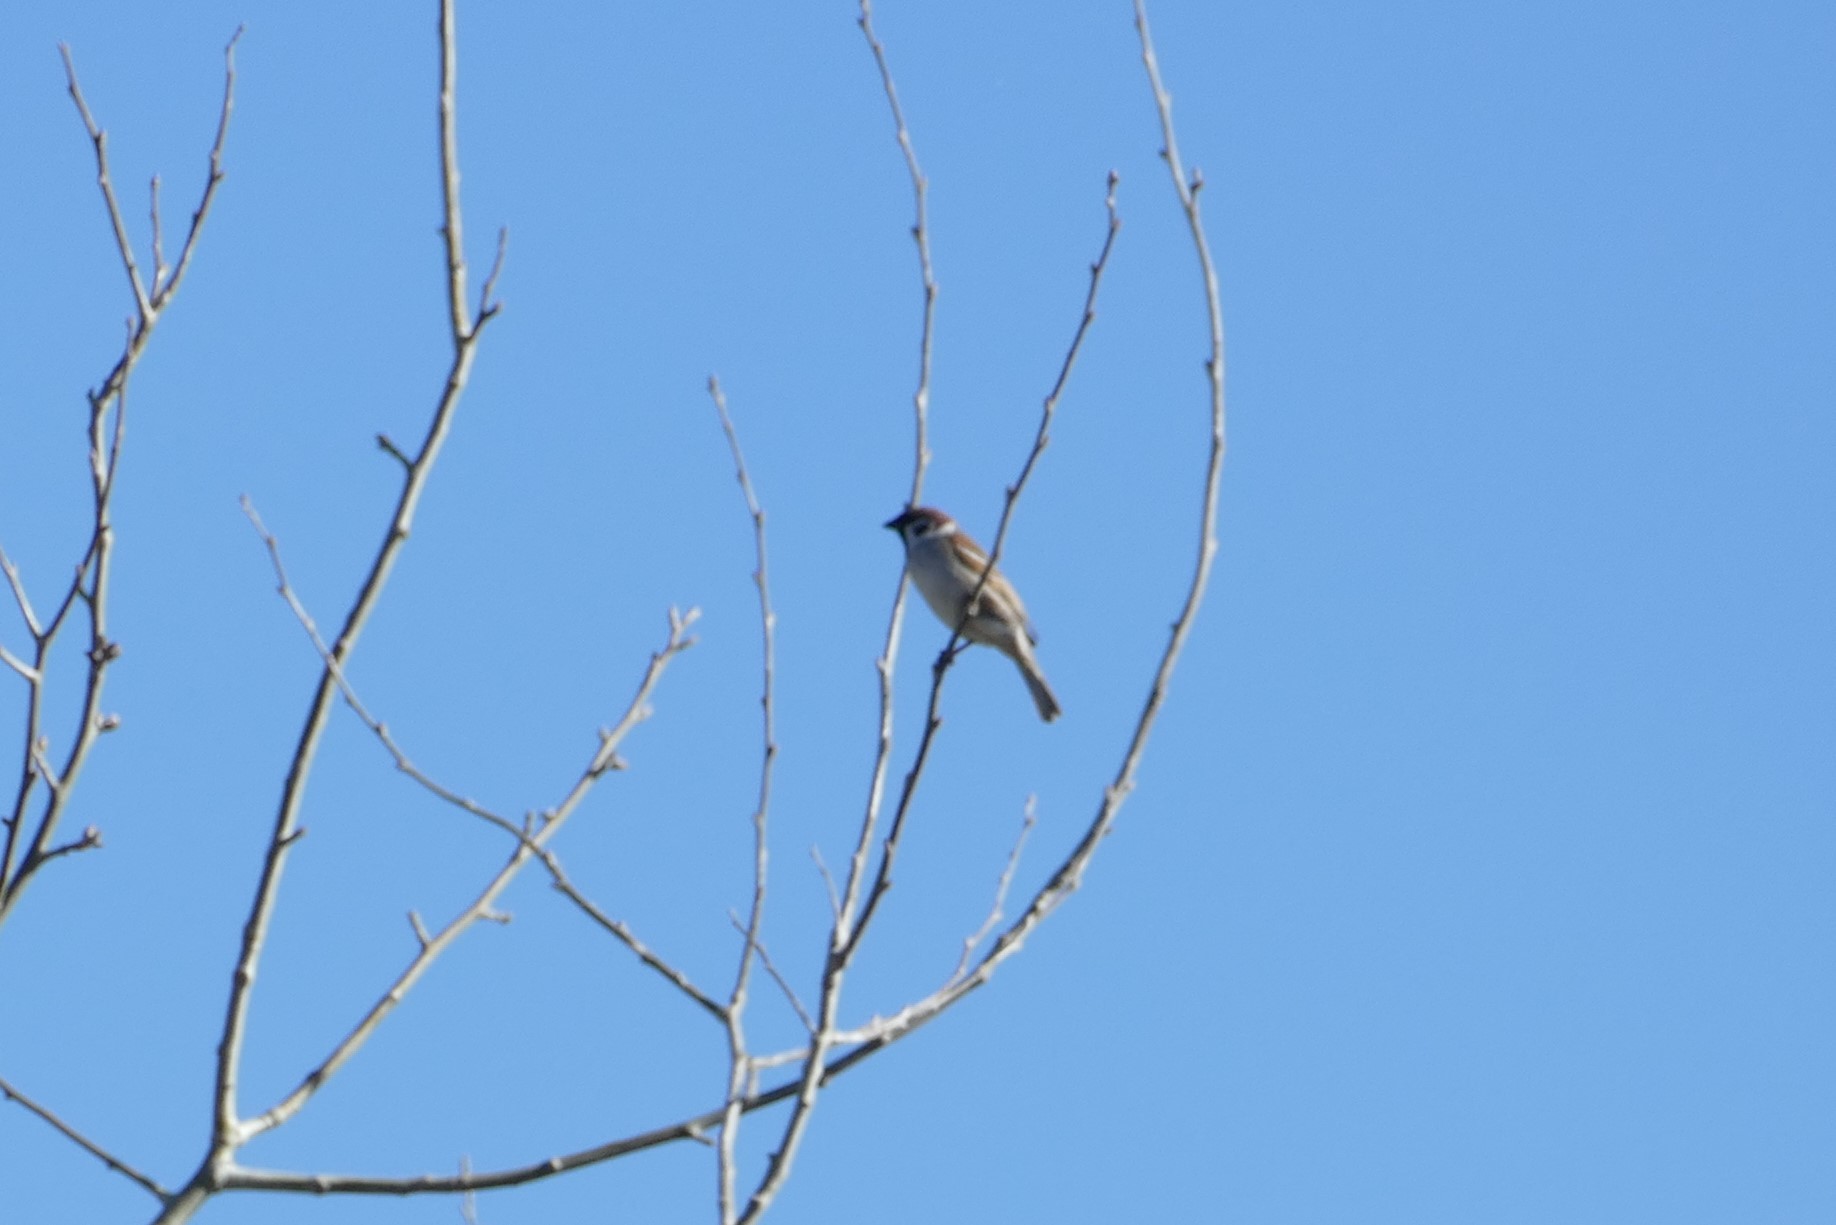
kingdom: Animalia
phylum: Chordata
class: Aves
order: Passeriformes
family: Passeridae
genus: Passer
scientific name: Passer montanus
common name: Eurasian tree sparrow
